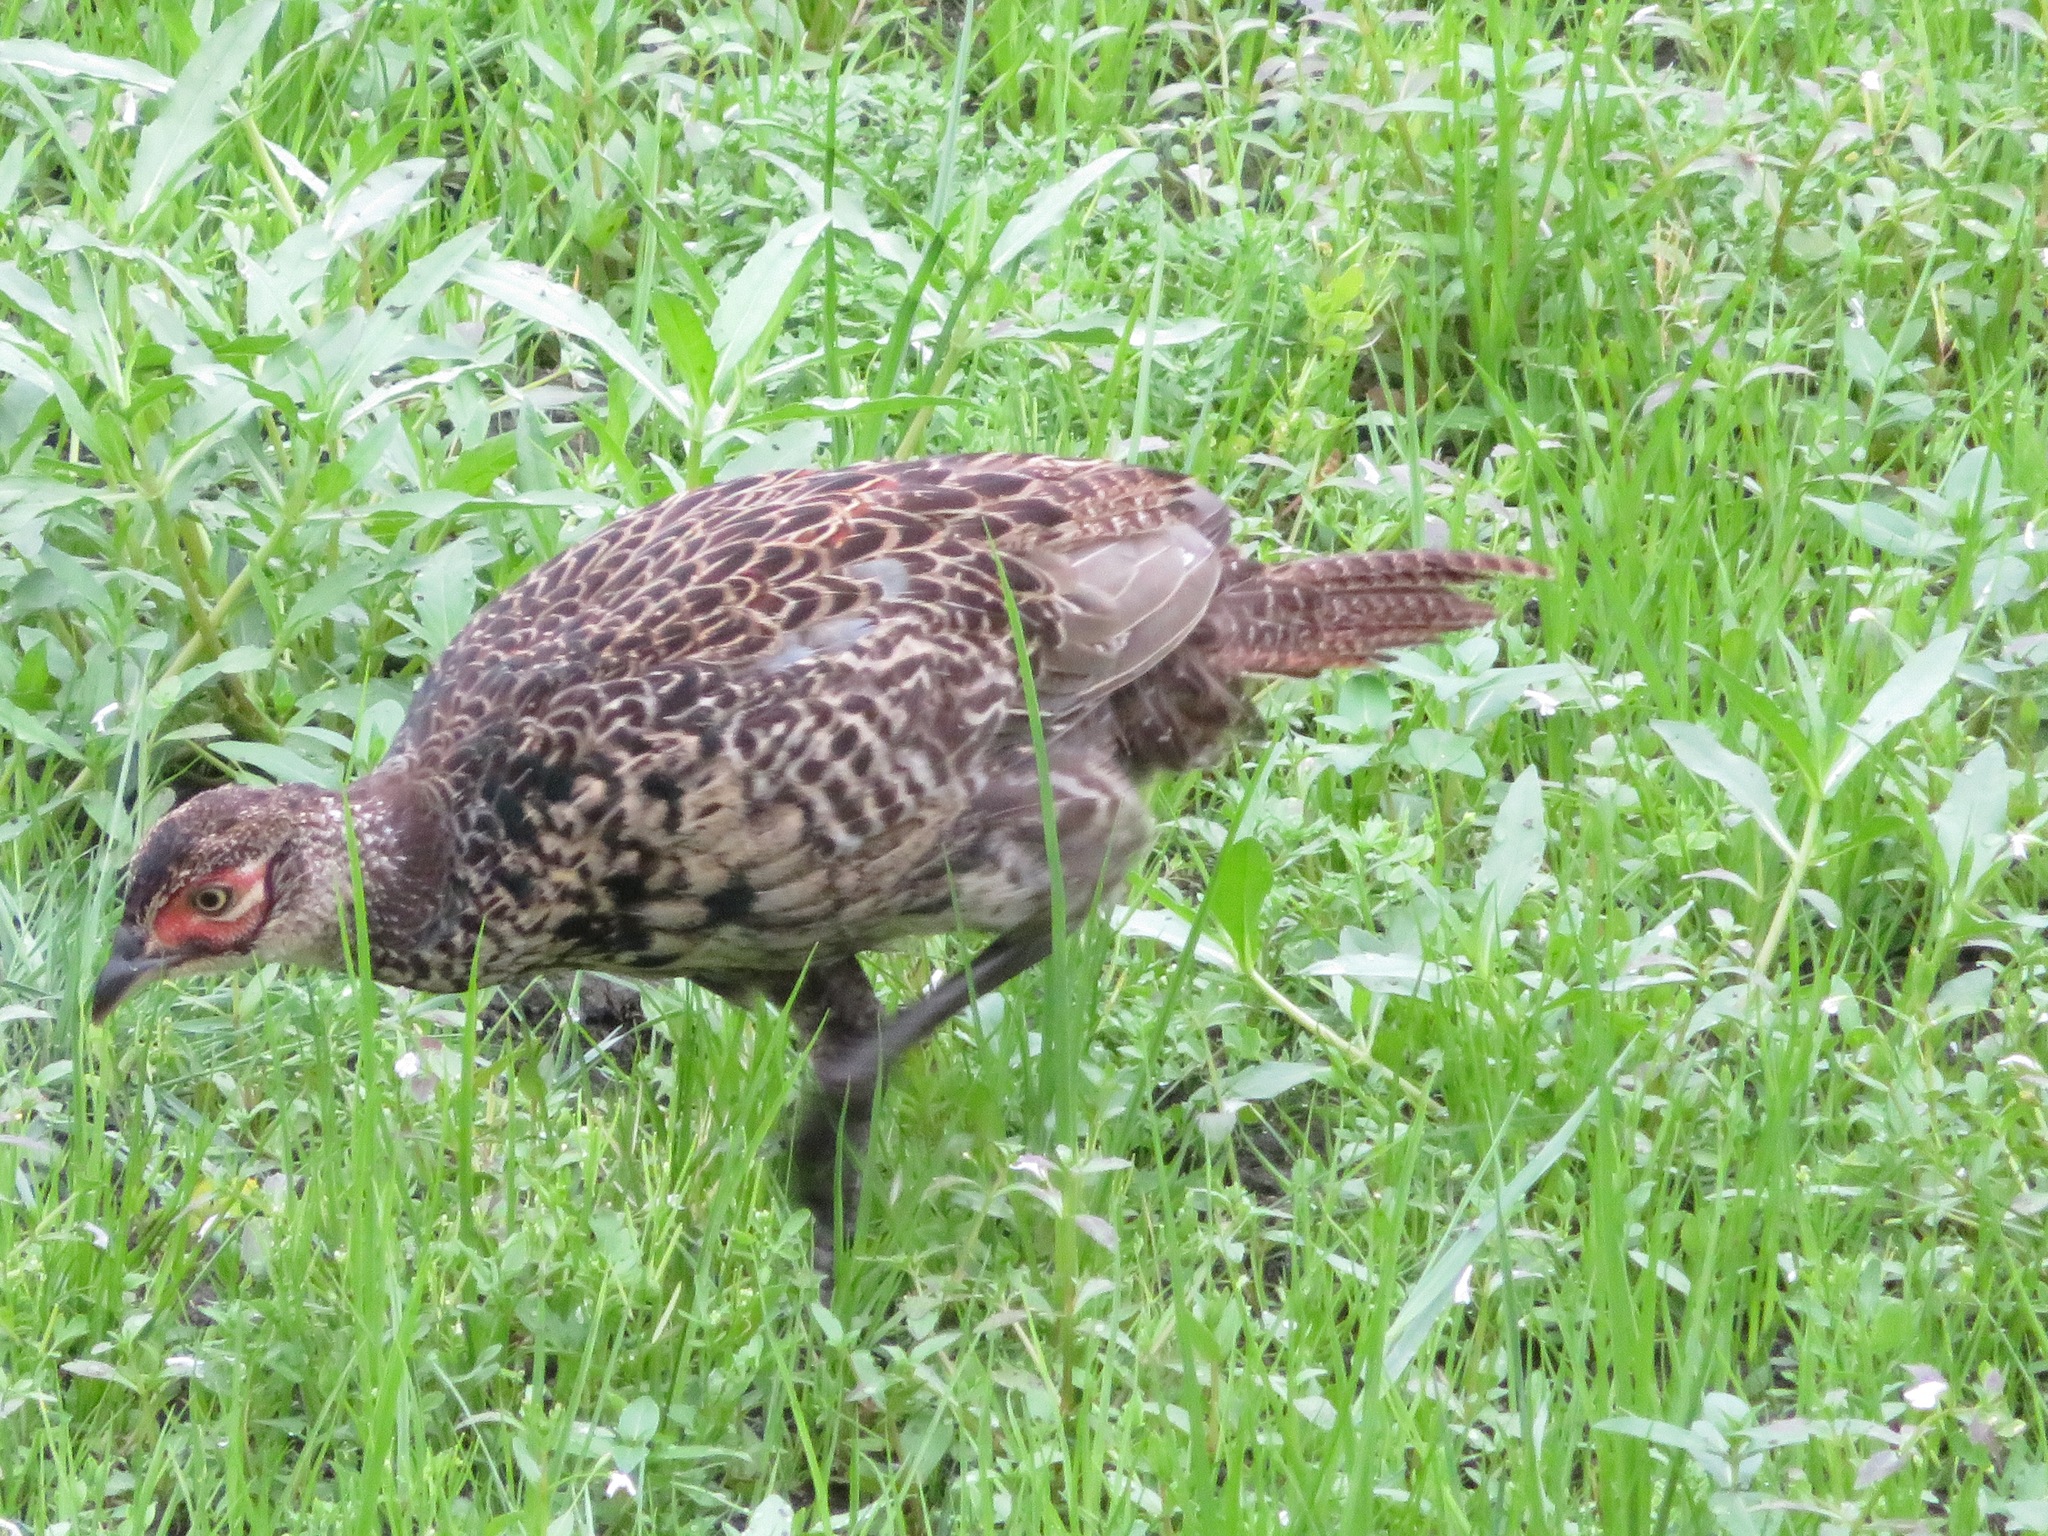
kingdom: Animalia
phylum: Chordata
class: Aves
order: Galliformes
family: Phasianidae
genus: Phasianus
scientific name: Phasianus versicolor
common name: Green pheasant
